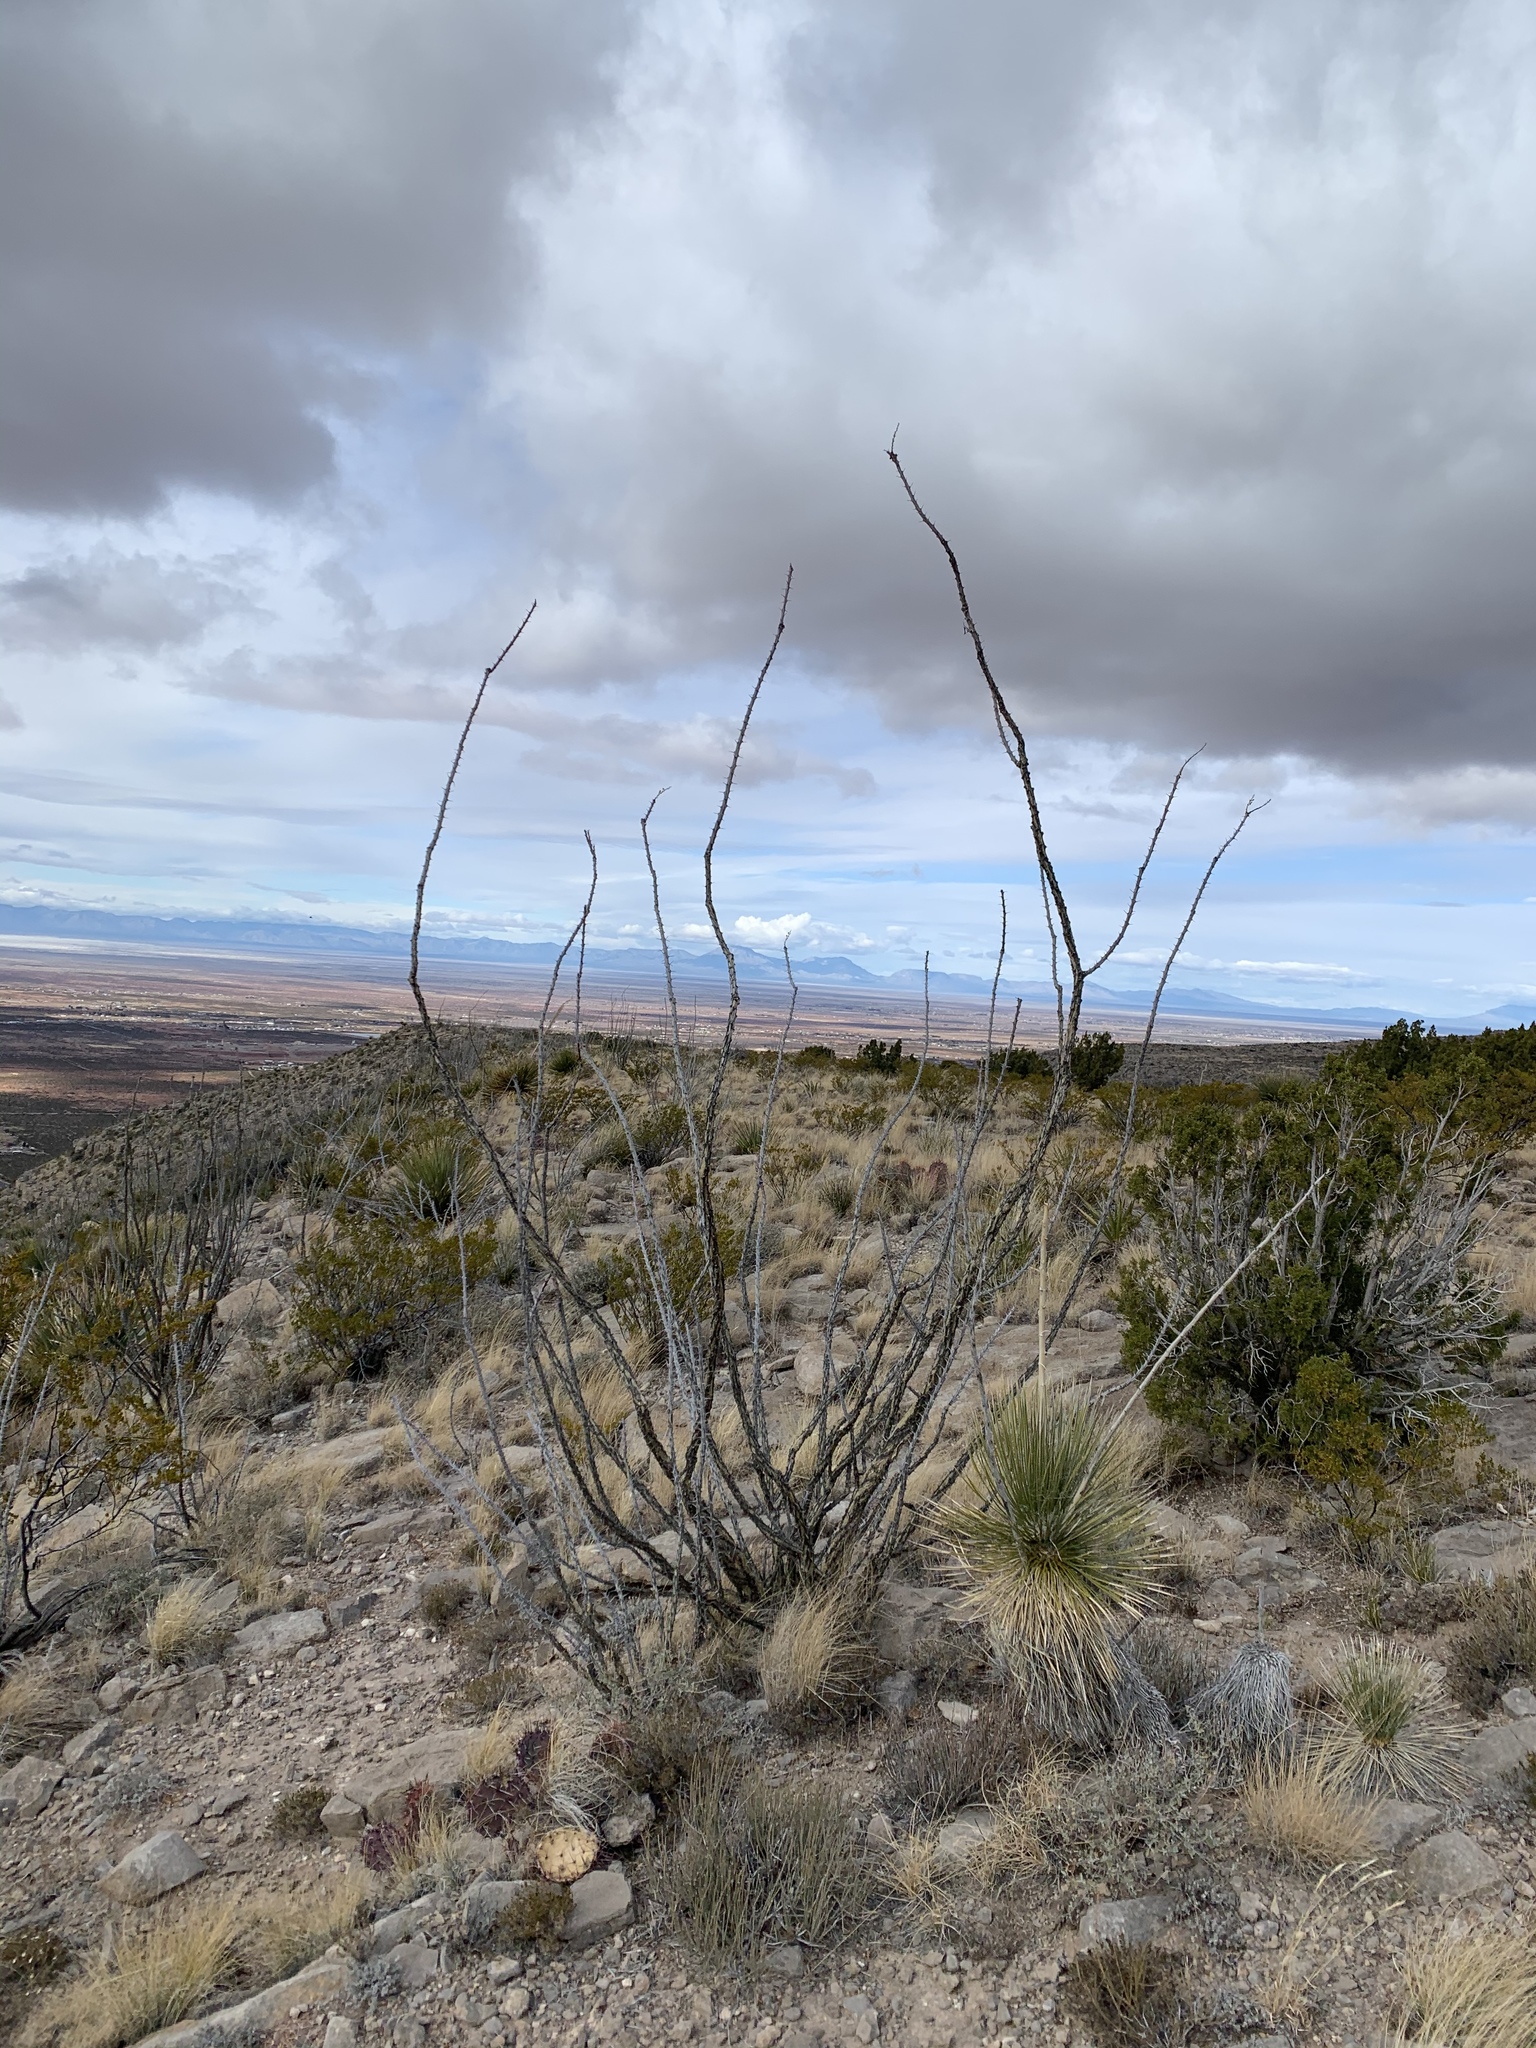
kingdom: Plantae
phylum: Tracheophyta
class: Magnoliopsida
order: Ericales
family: Fouquieriaceae
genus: Fouquieria
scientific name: Fouquieria splendens
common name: Vine-cactus
